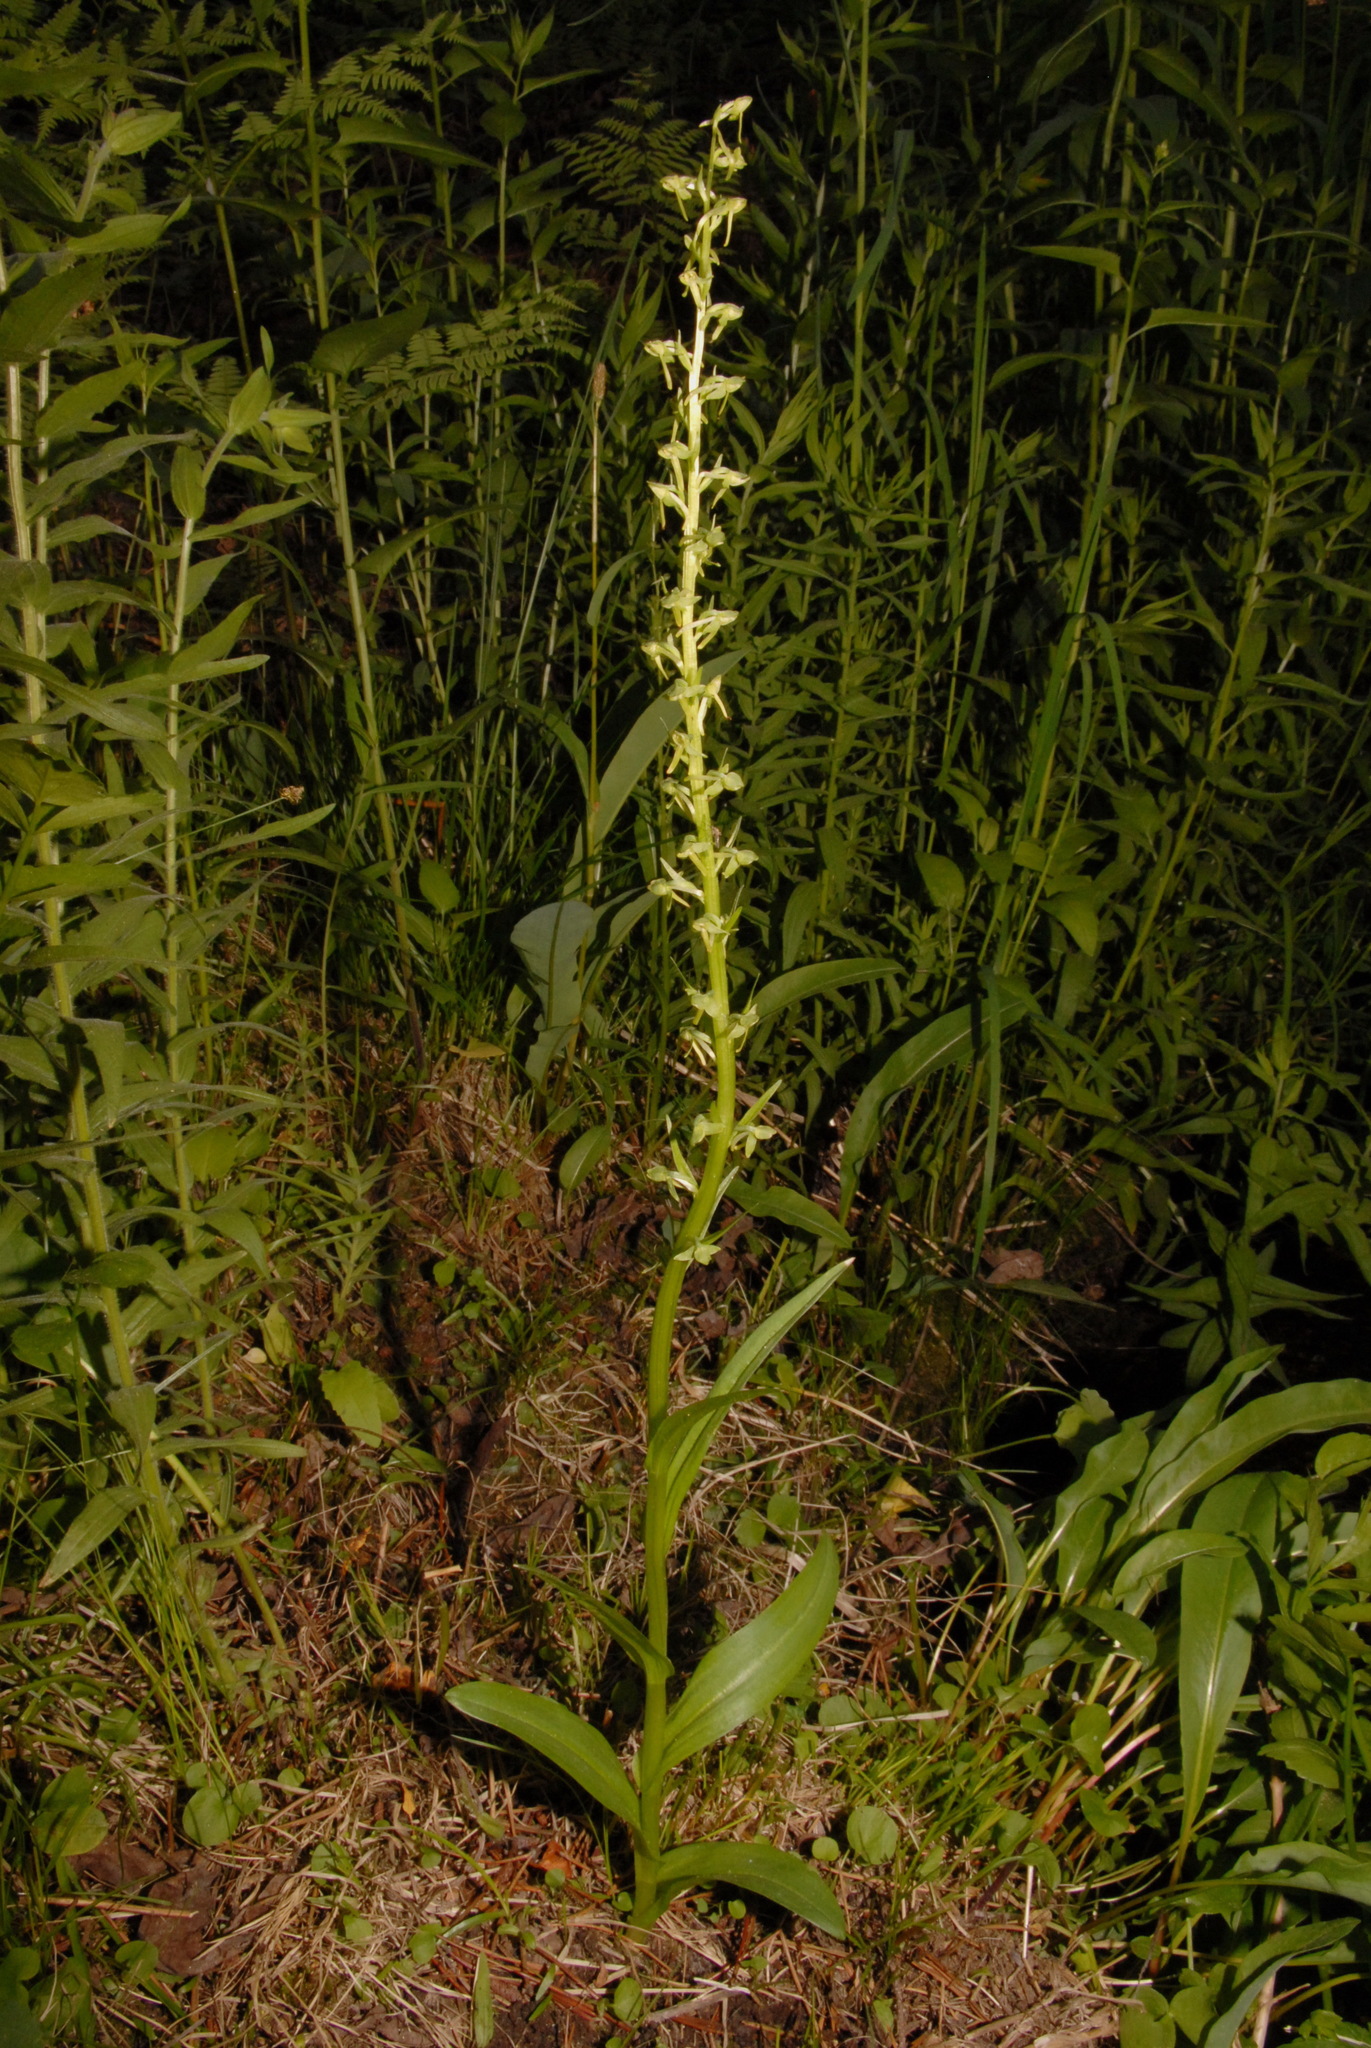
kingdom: Plantae
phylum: Tracheophyta
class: Liliopsida
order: Asparagales
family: Orchidaceae
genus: Platanthera
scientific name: Platanthera sparsiflora
